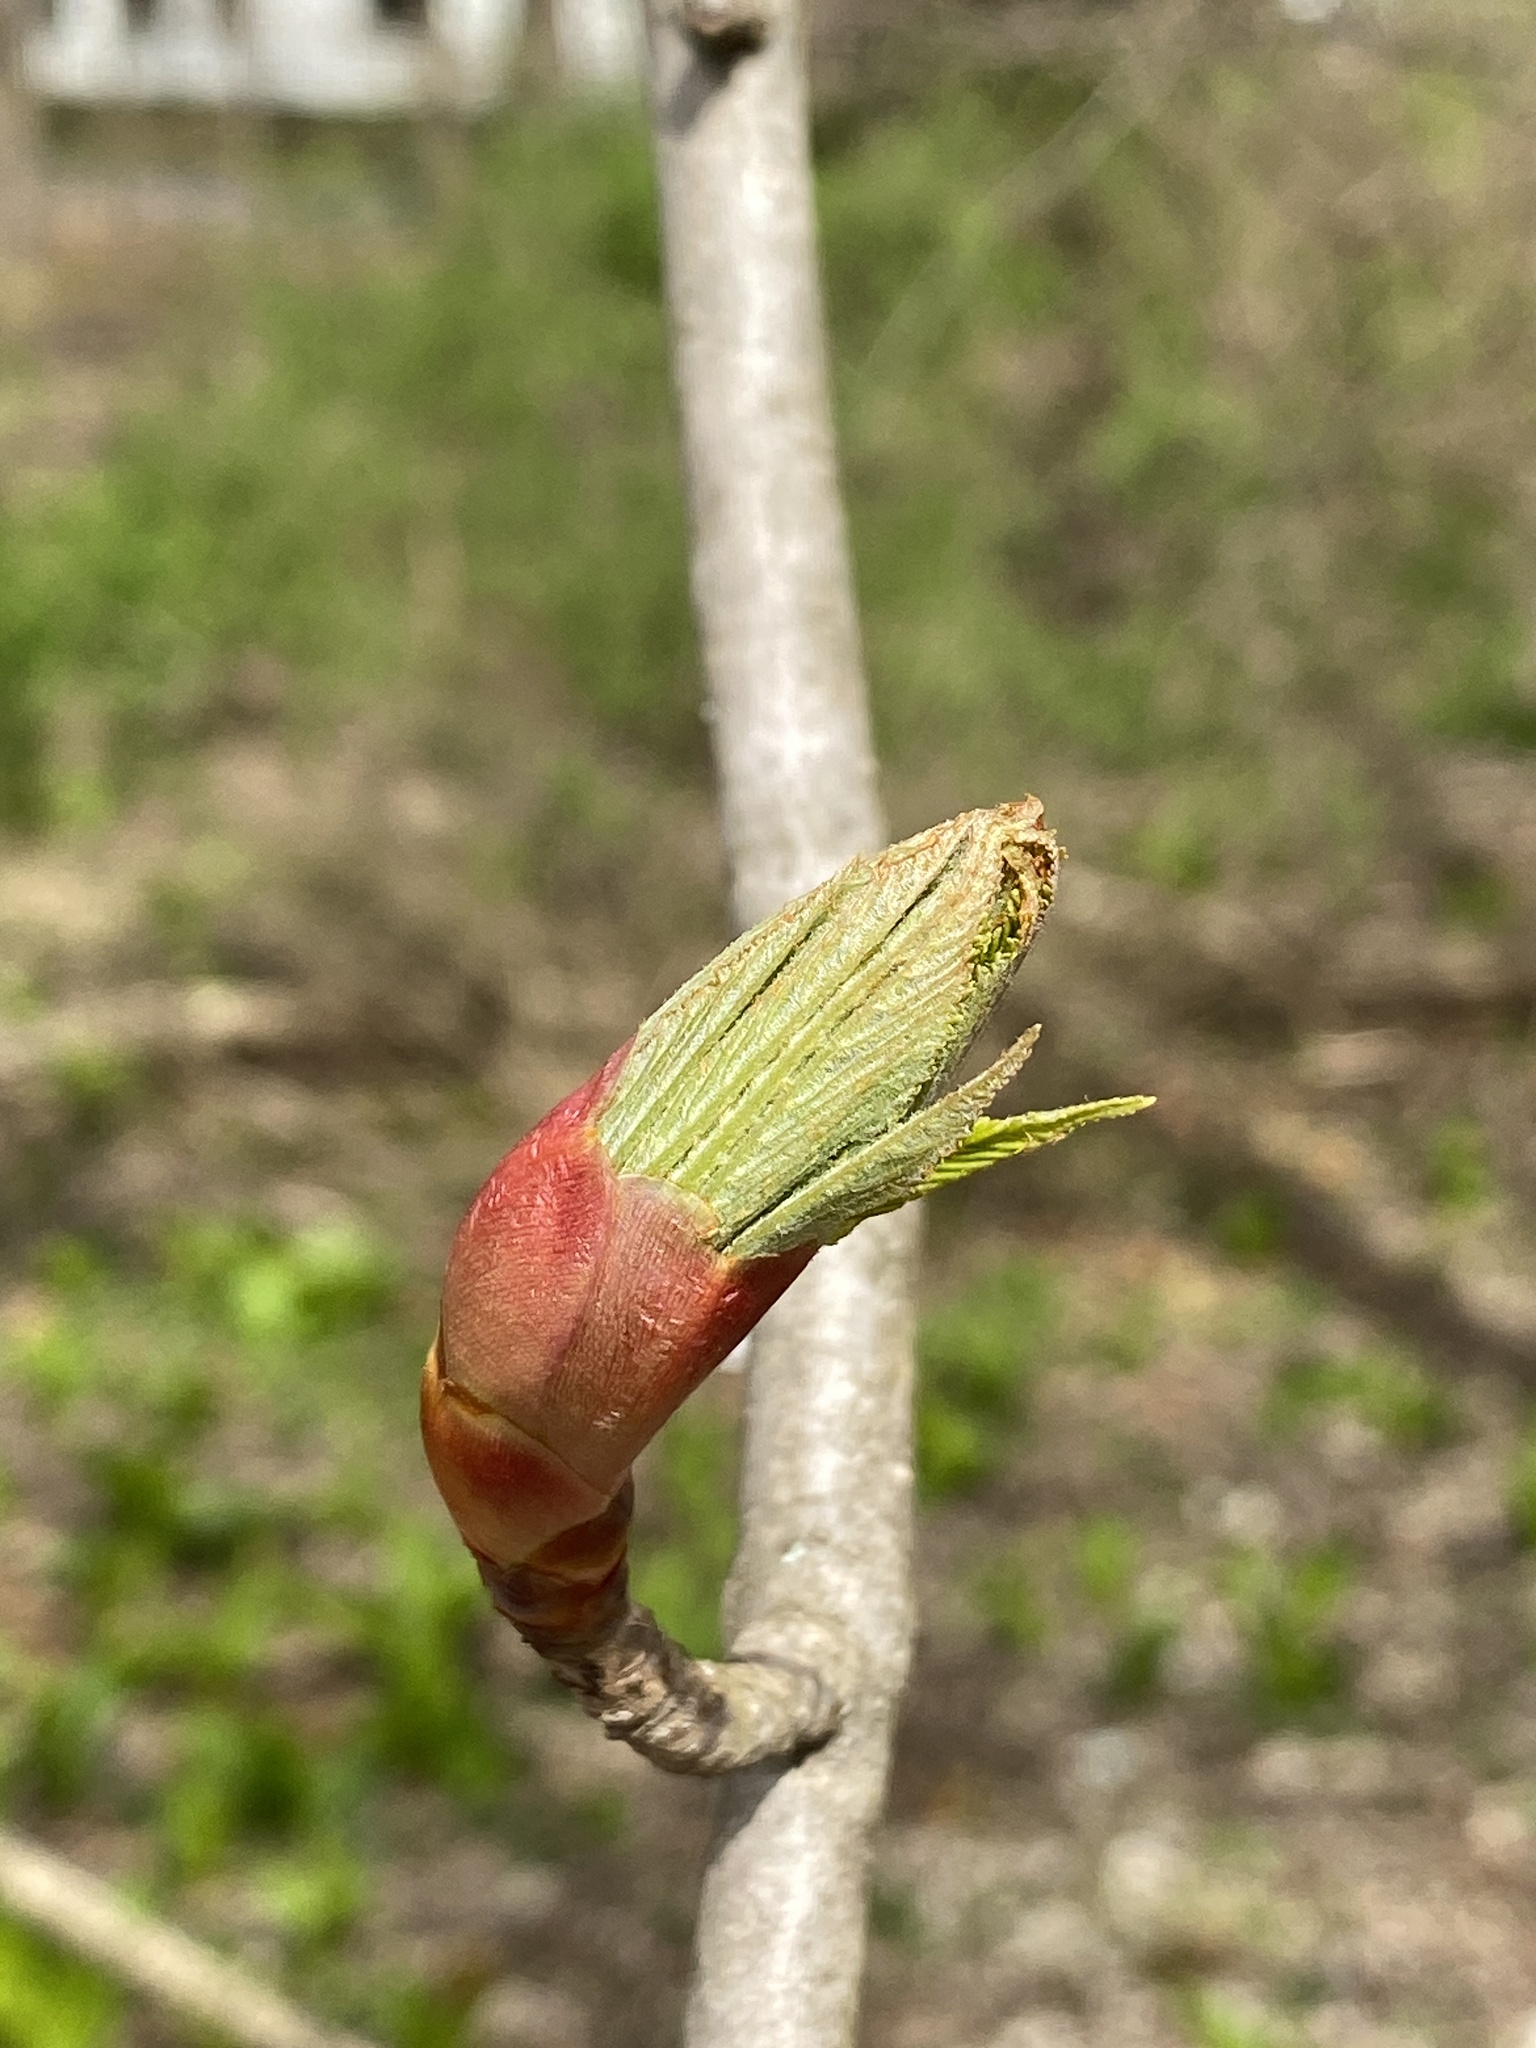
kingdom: Plantae
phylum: Tracheophyta
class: Magnoliopsida
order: Sapindales
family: Sapindaceae
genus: Aesculus
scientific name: Aesculus flava
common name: Yellow buckeye
